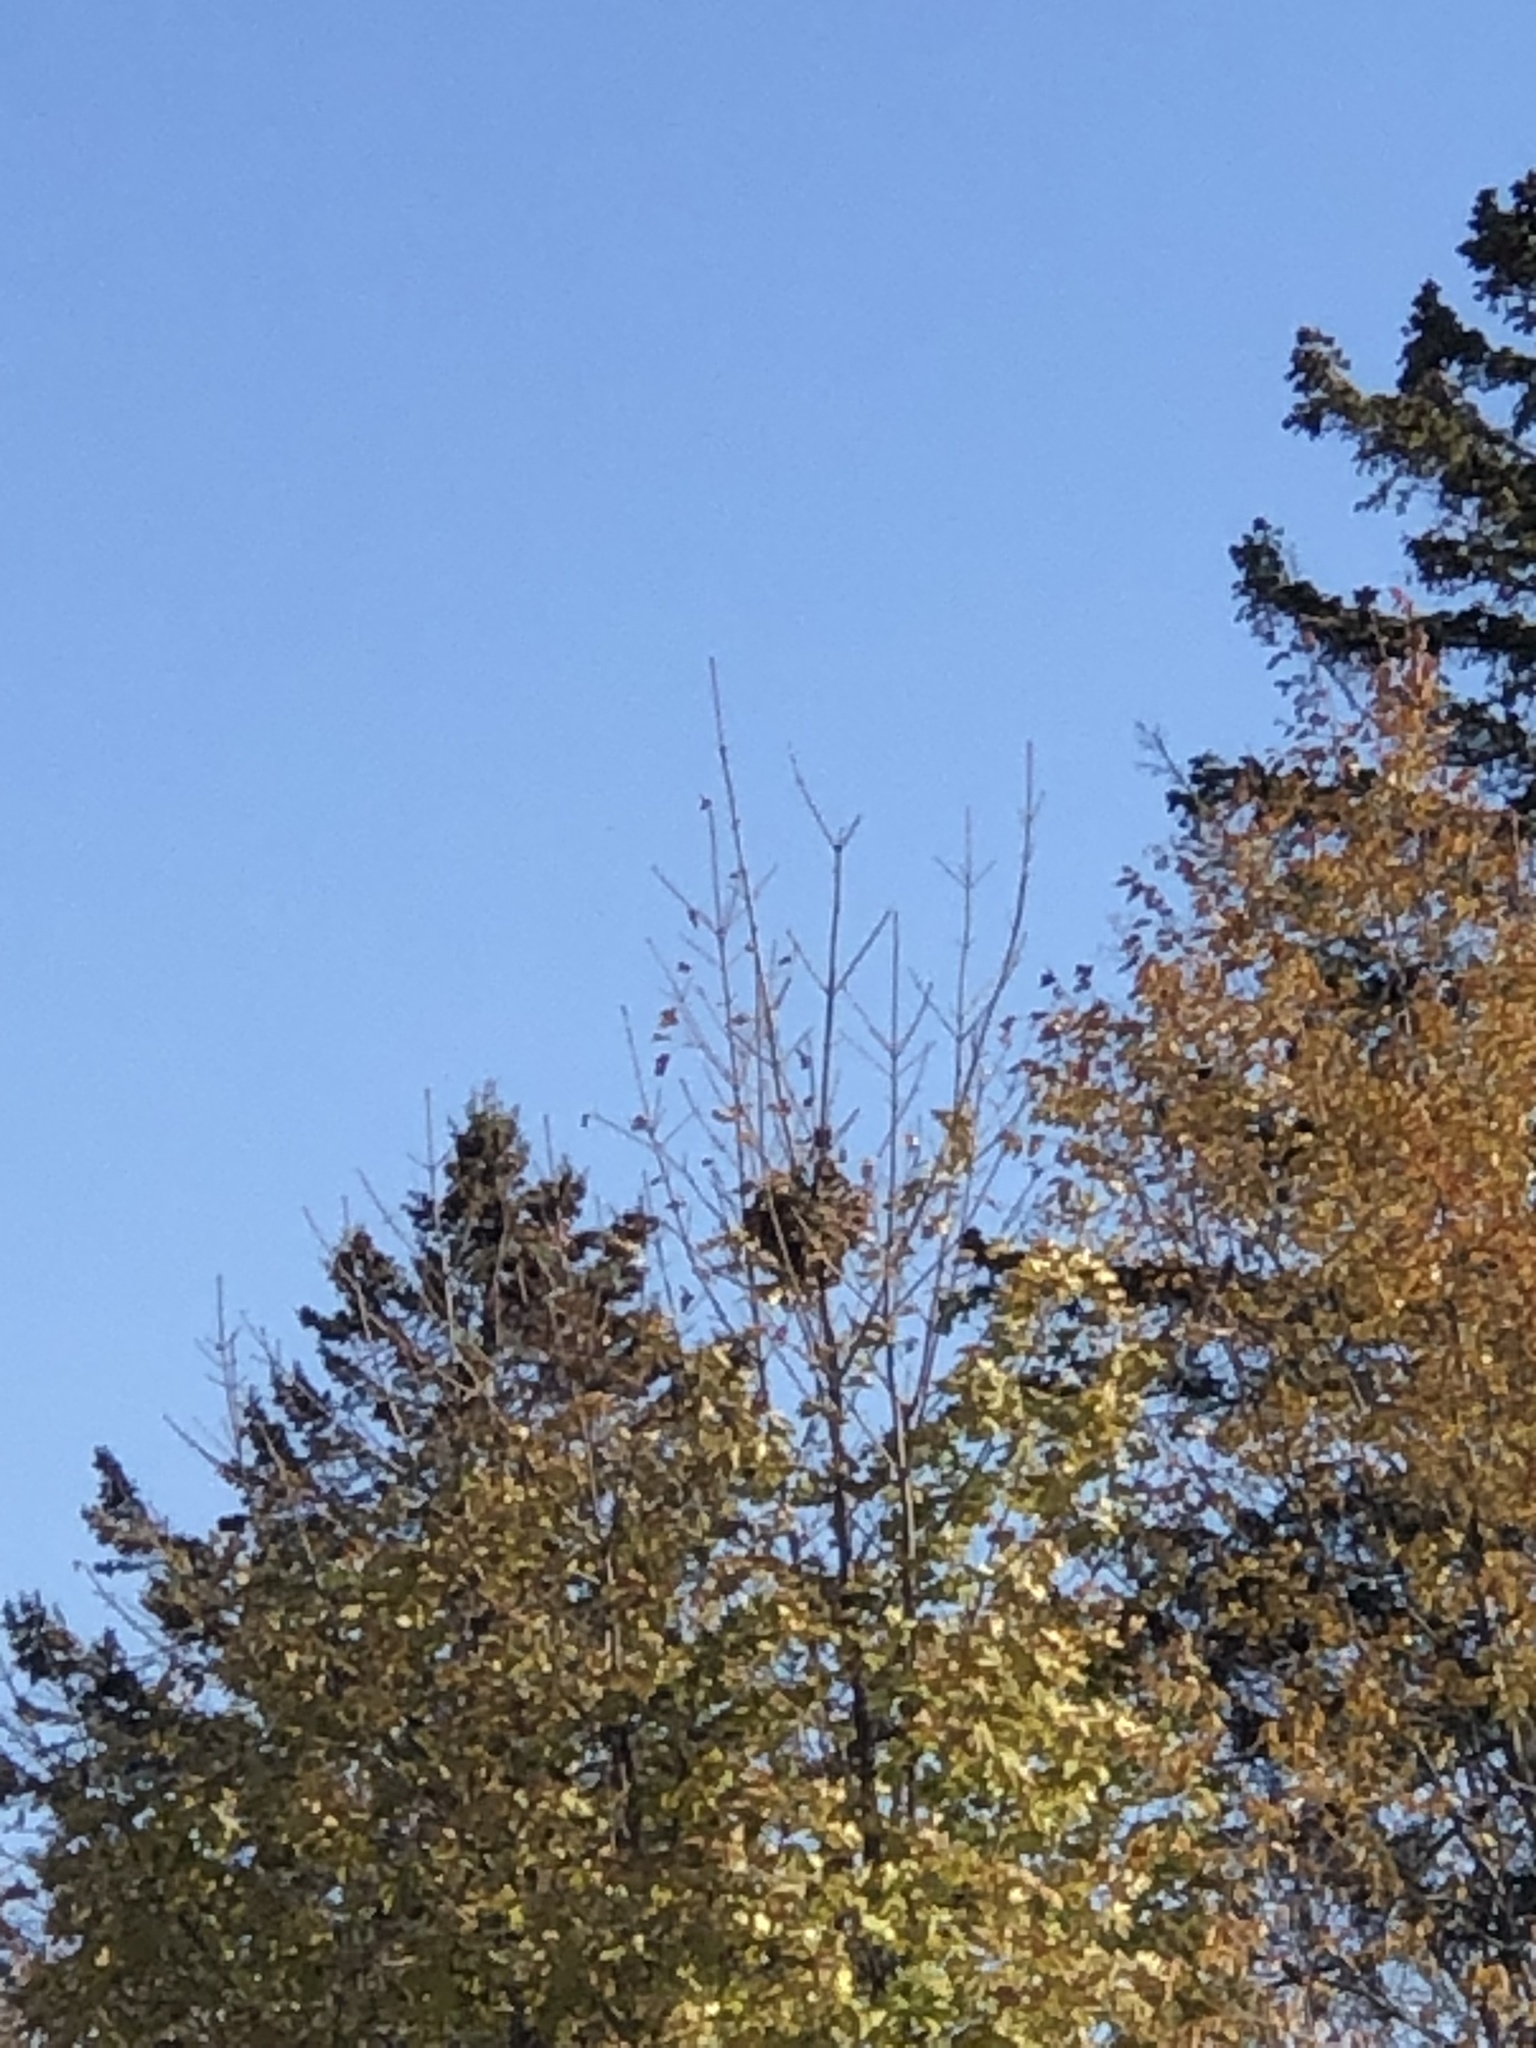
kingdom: Animalia
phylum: Chordata
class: Mammalia
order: Rodentia
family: Sciuridae
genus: Sciurus
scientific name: Sciurus carolinensis
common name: Eastern gray squirrel
